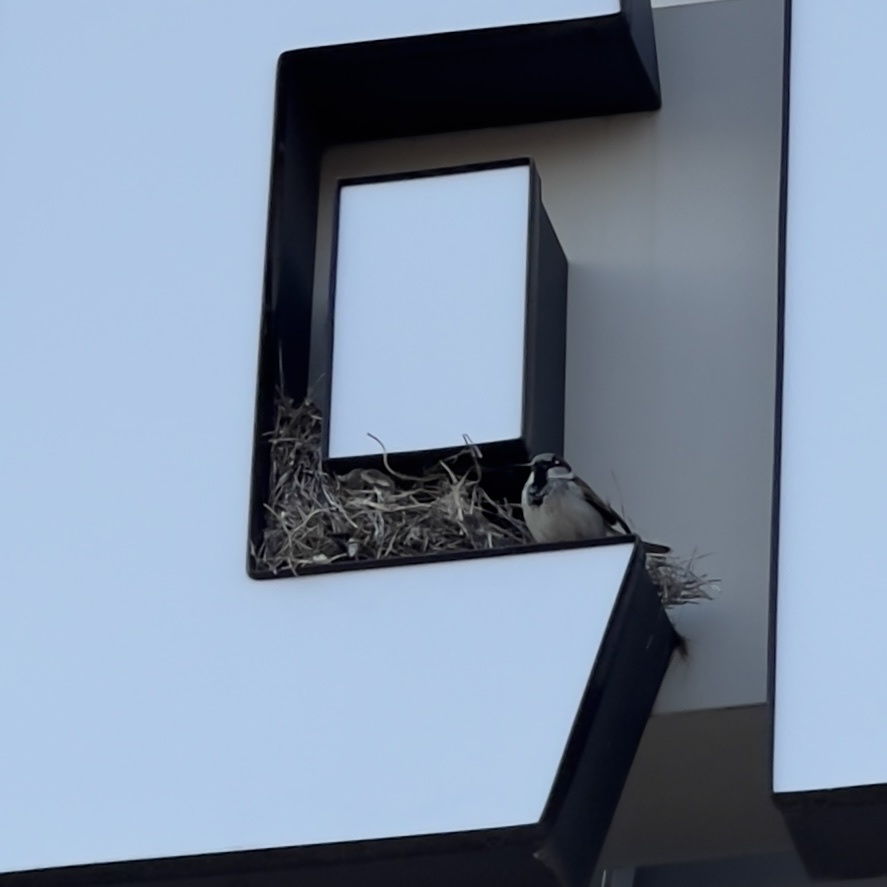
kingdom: Animalia
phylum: Chordata
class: Aves
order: Passeriformes
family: Passeridae
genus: Passer
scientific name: Passer domesticus
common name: House sparrow
